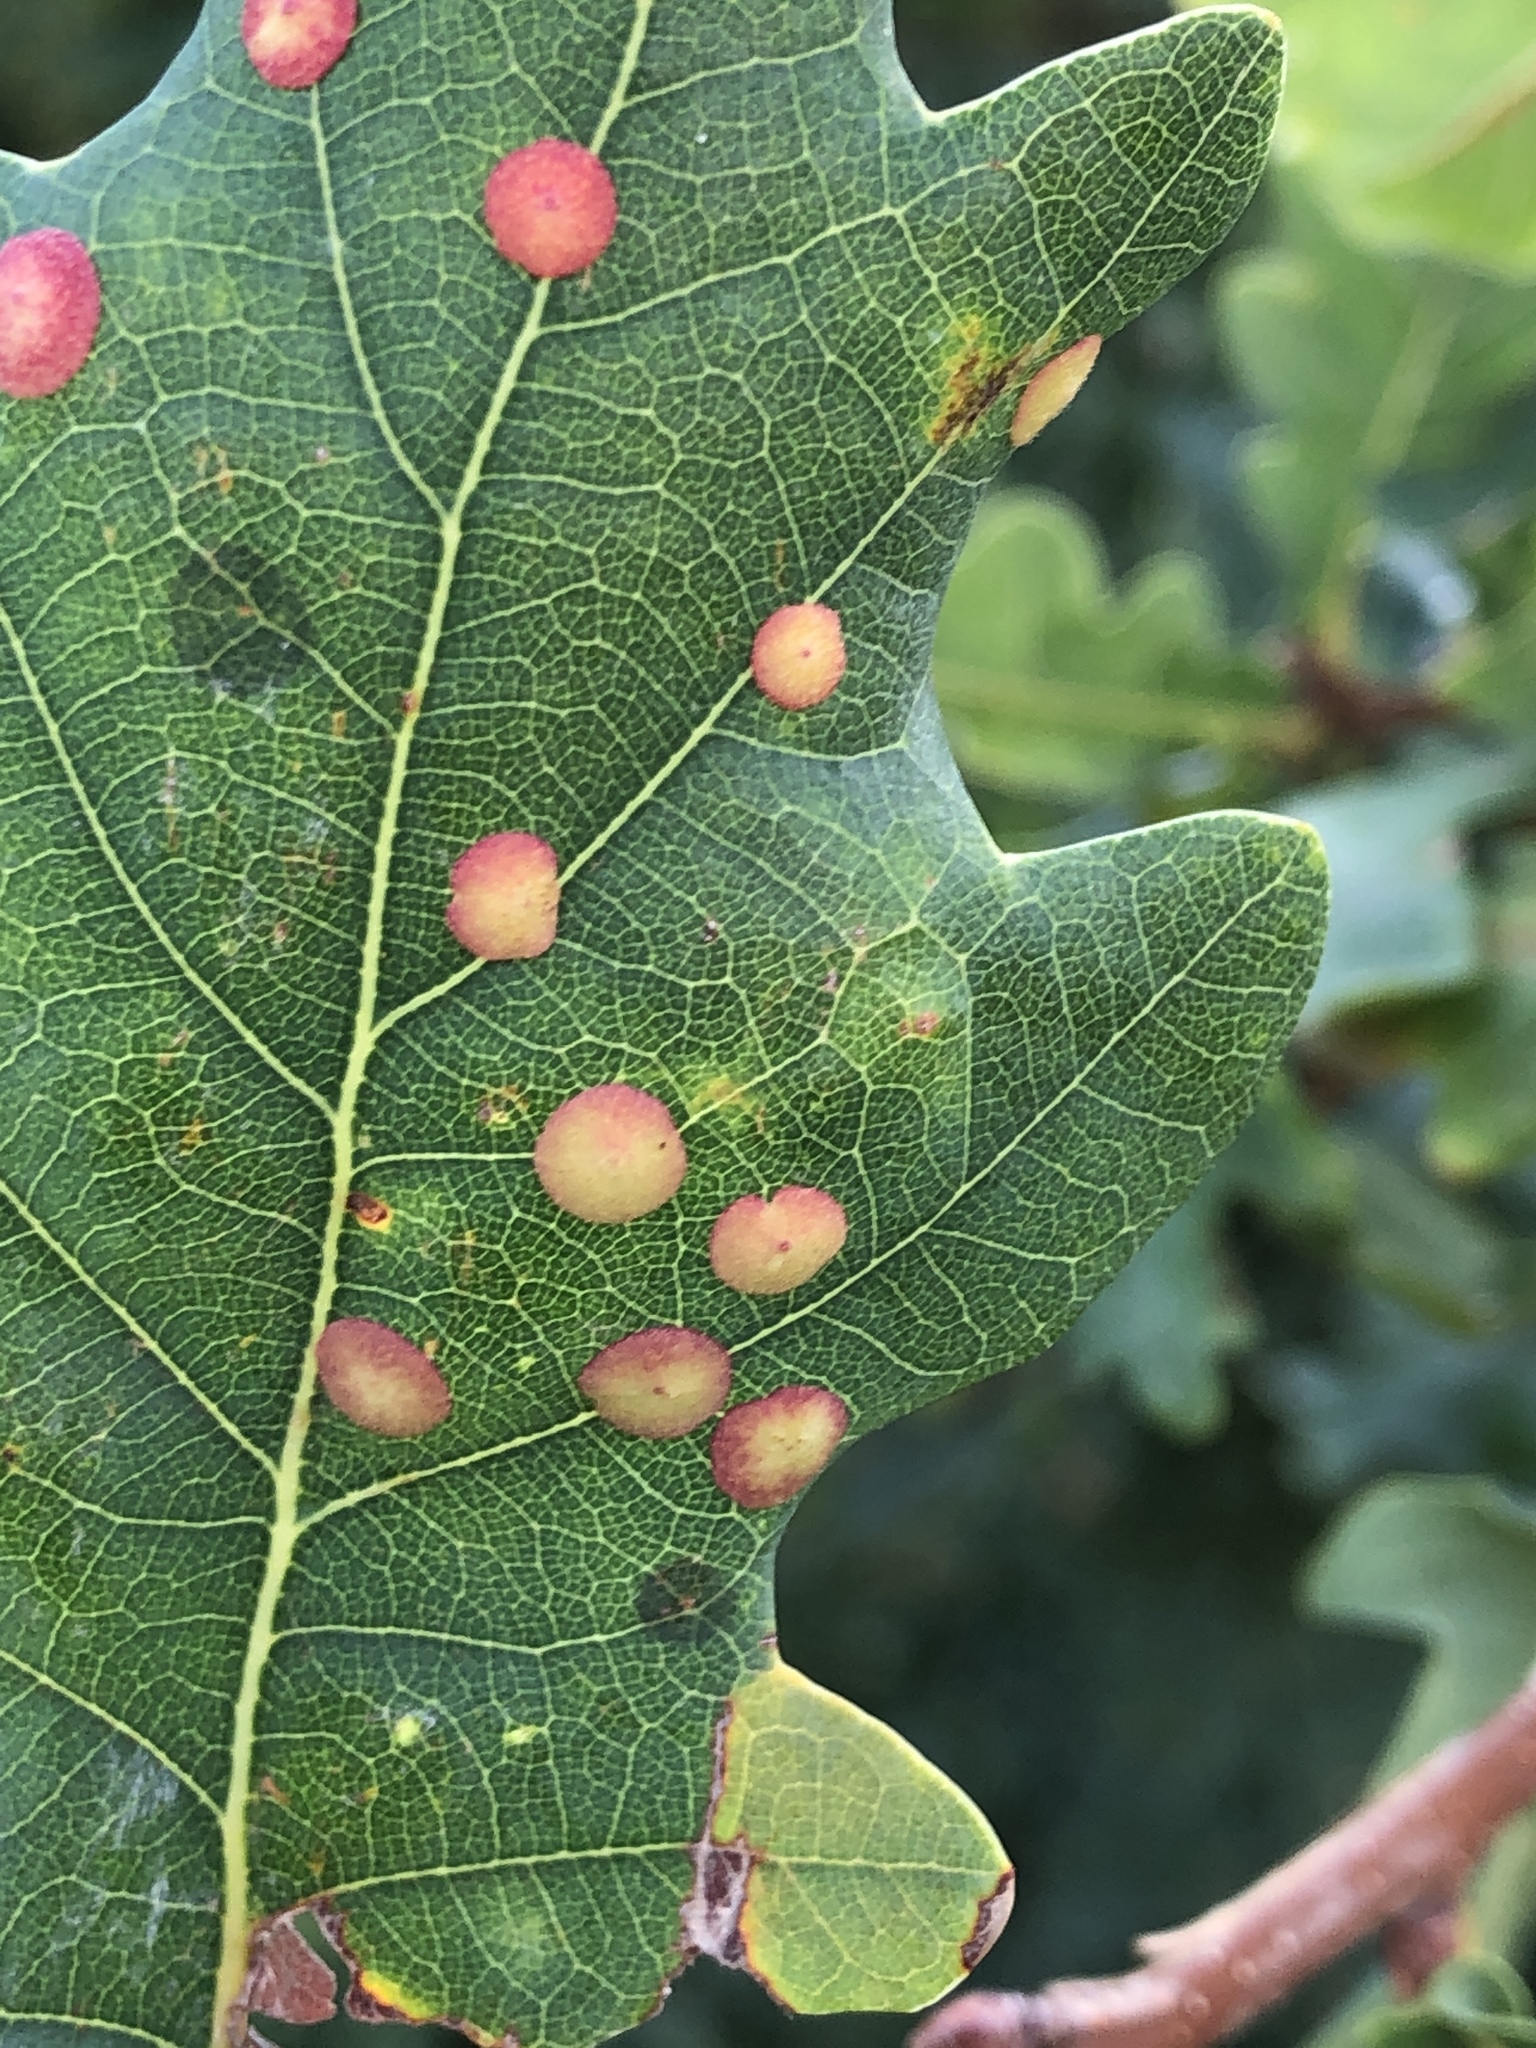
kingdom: Animalia
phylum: Arthropoda
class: Insecta
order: Hymenoptera
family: Cynipidae
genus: Neuroterus
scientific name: Neuroterus quercusbaccarum
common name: Common spangle gall
